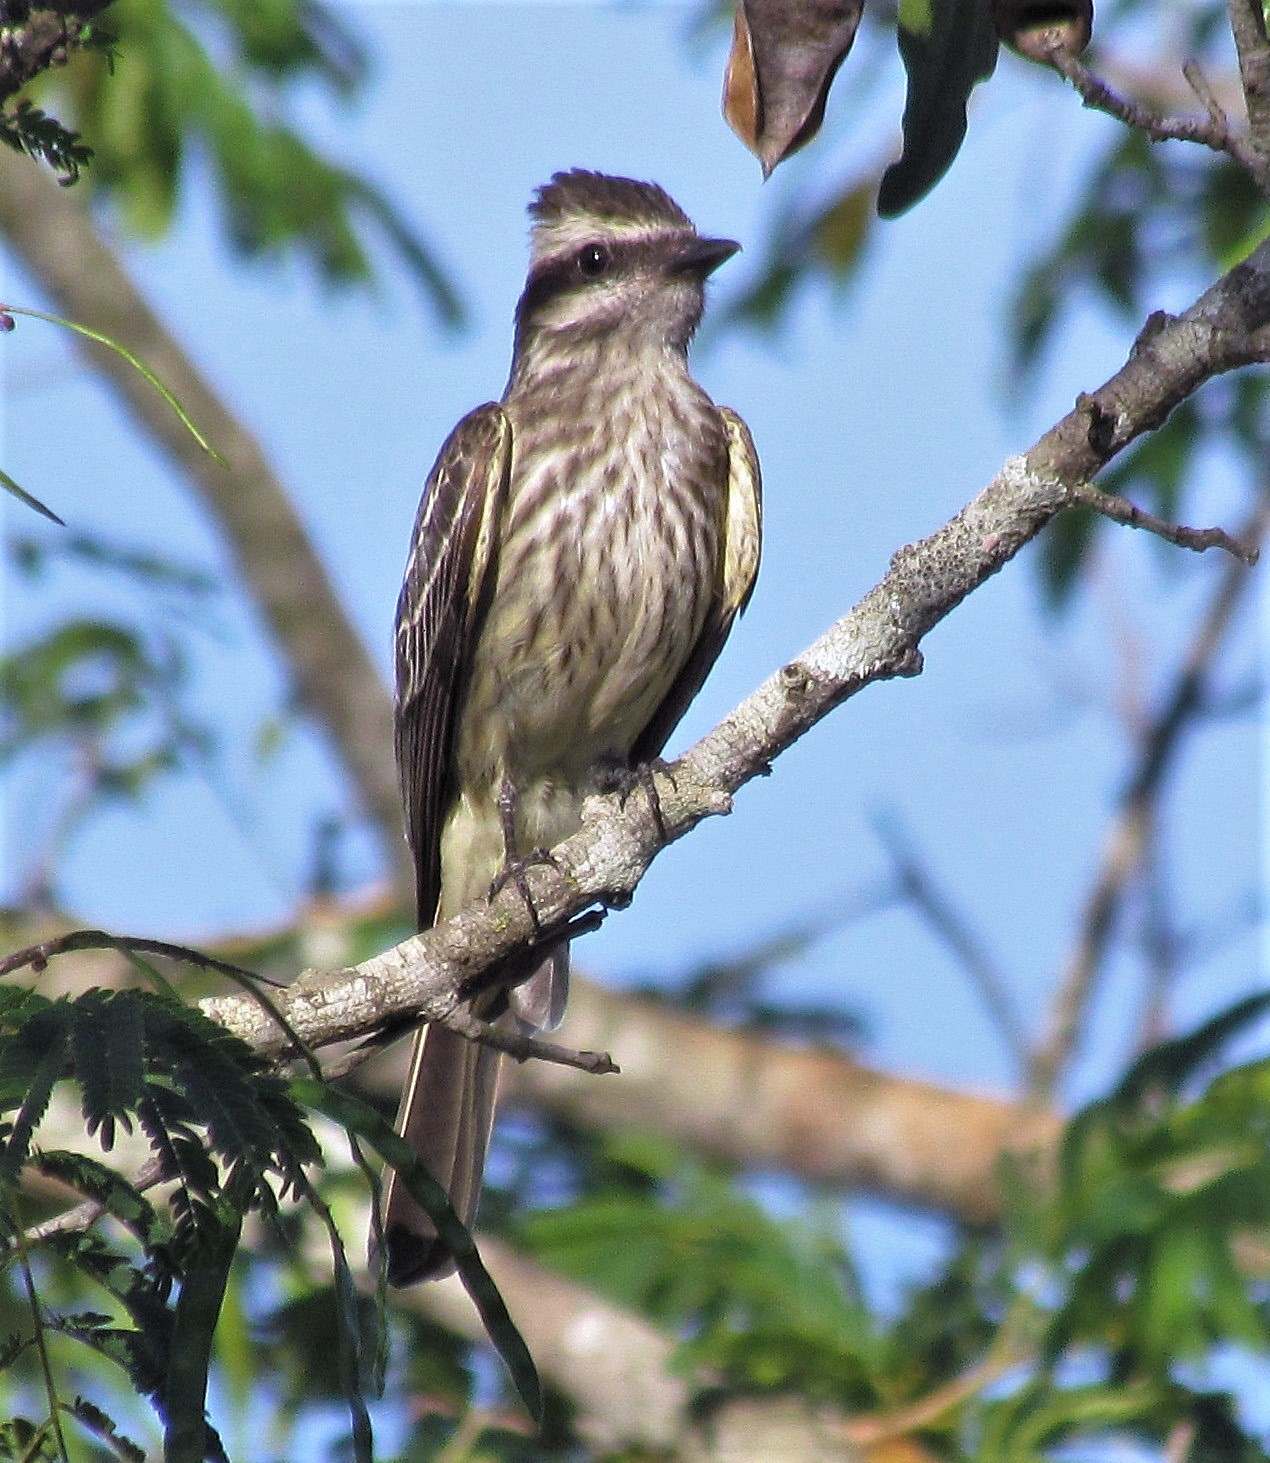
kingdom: Animalia
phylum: Chordata
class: Aves
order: Passeriformes
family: Tyrannidae
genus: Empidonomus
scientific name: Empidonomus varius
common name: Variegated flycatcher
